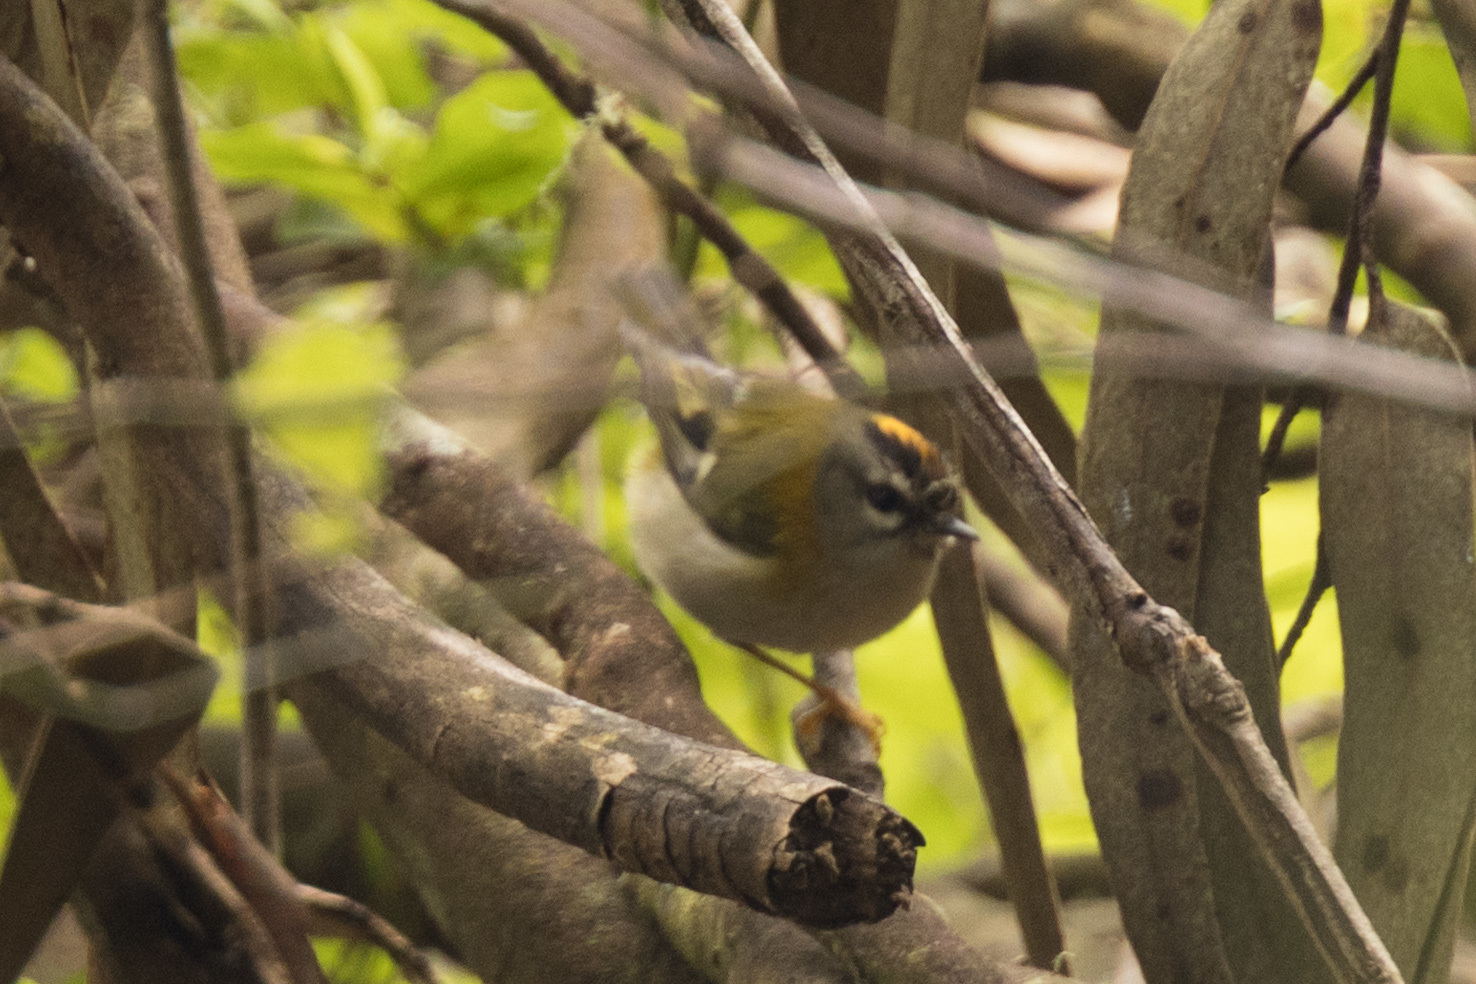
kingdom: Animalia
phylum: Chordata
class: Aves
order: Passeriformes
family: Regulidae
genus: Regulus
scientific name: Regulus madeirensis
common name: Madeira firecrest
